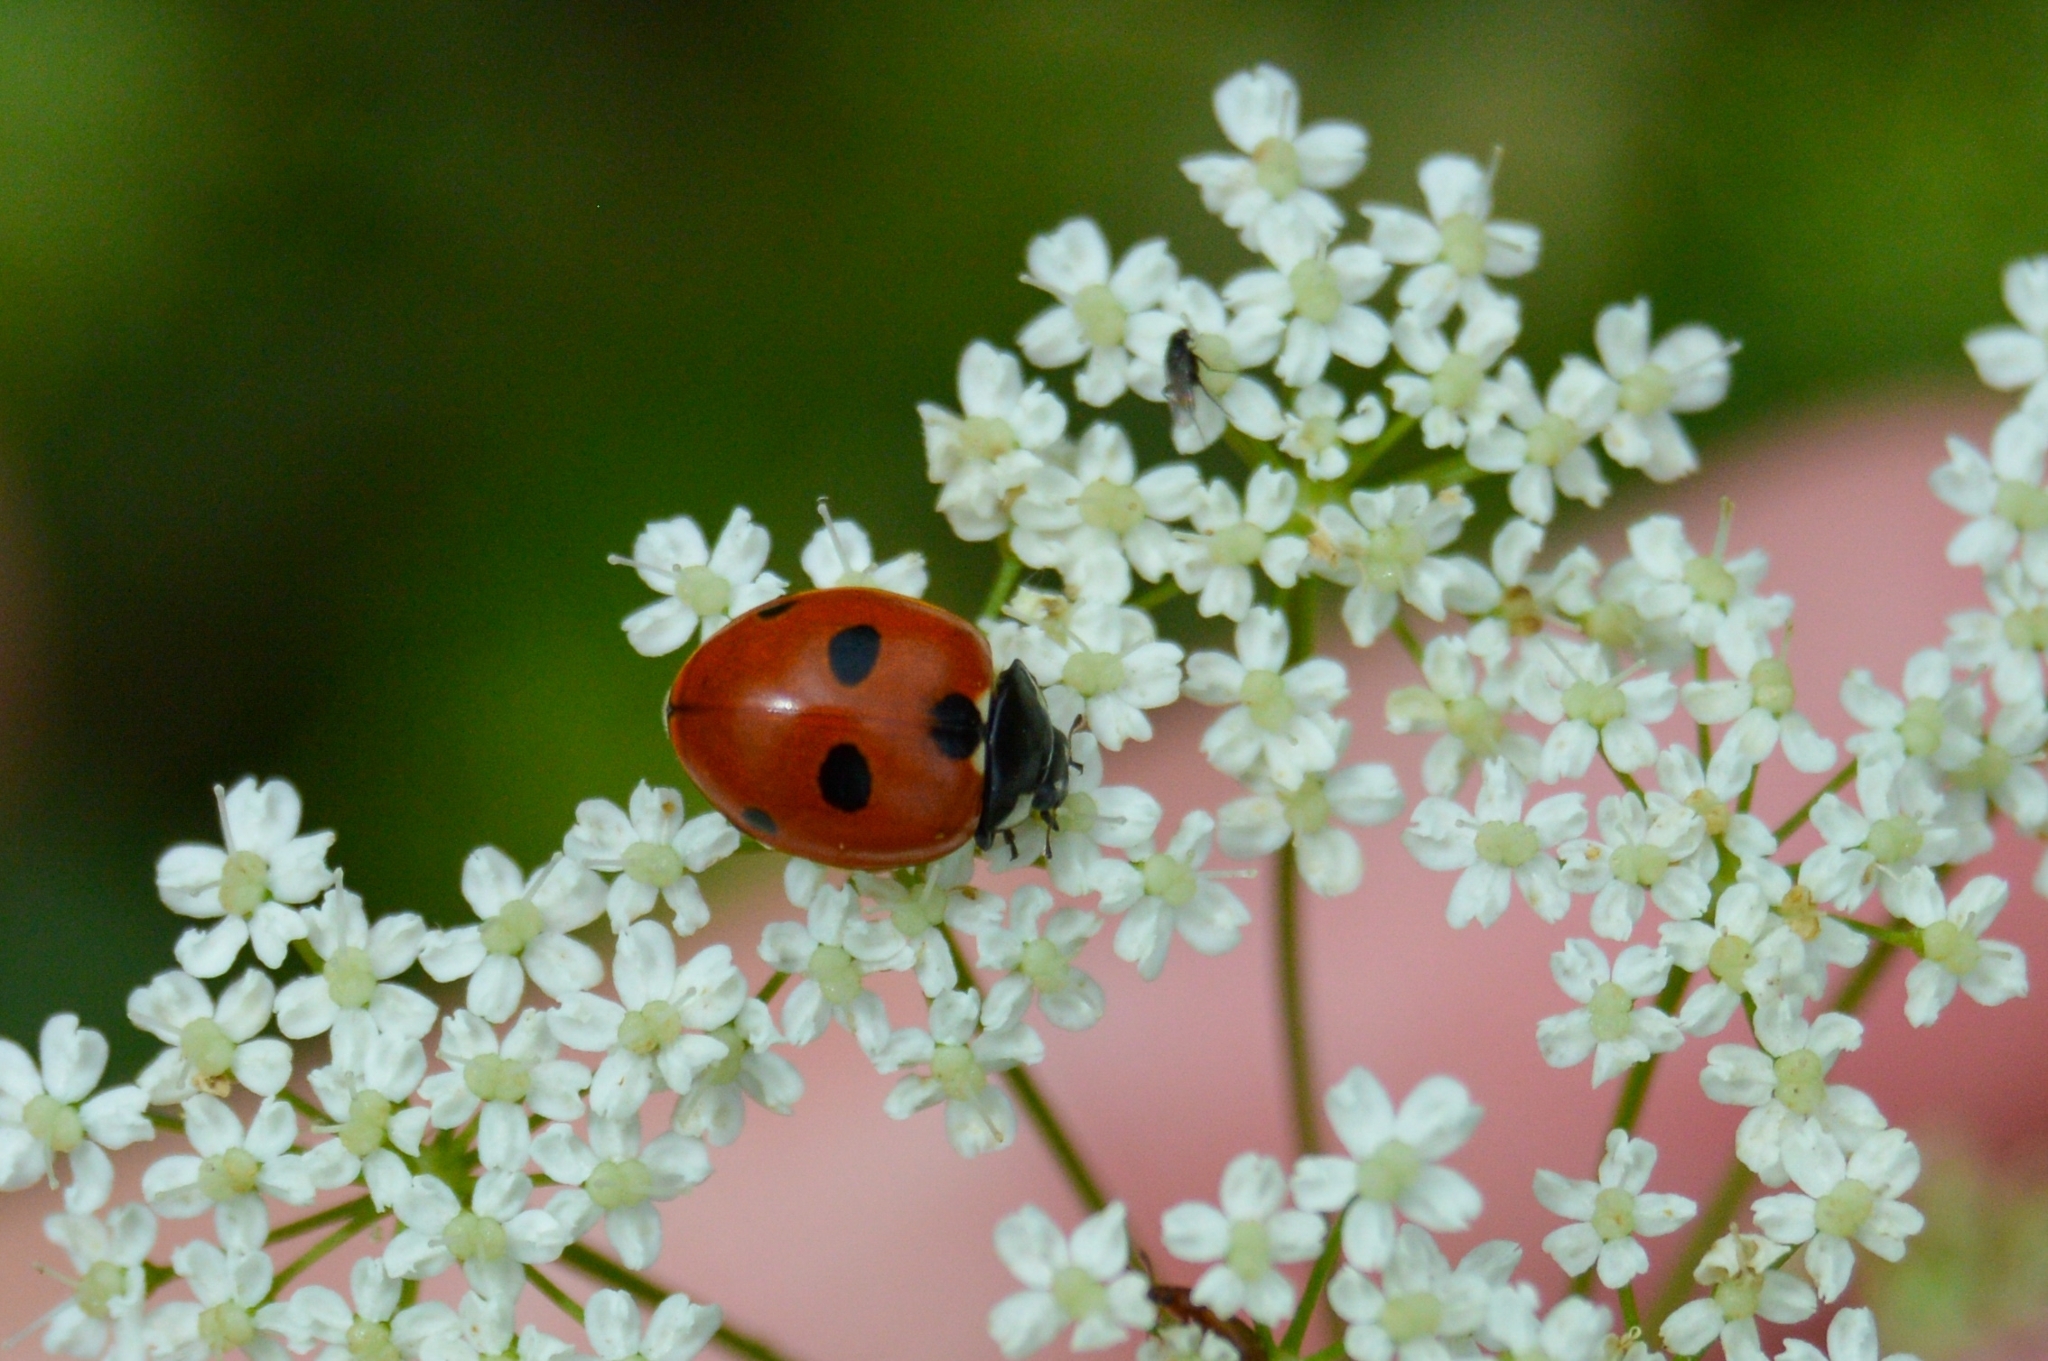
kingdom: Animalia
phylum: Arthropoda
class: Insecta
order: Coleoptera
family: Coccinellidae
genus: Coccinella
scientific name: Coccinella quinquepunctata
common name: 5-spot ladybird
